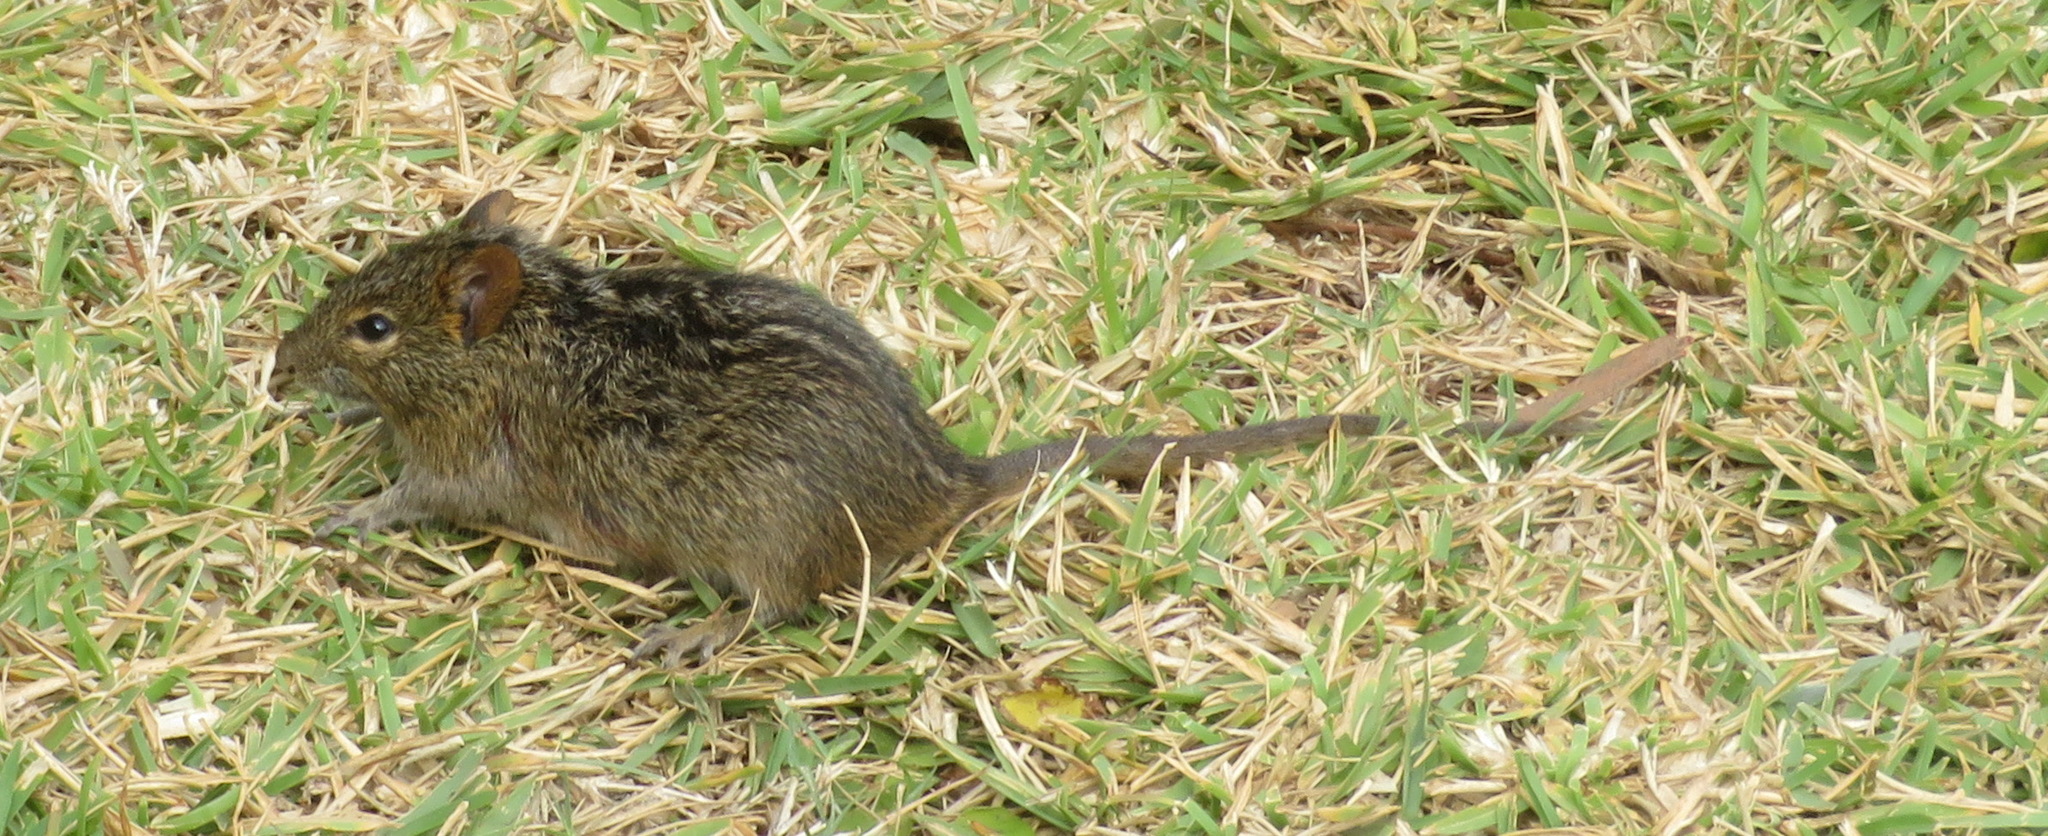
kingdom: Animalia
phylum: Chordata
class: Mammalia
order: Rodentia
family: Muridae
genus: Rhabdomys
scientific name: Rhabdomys pumilio
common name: Xeric four-striped grass rat
